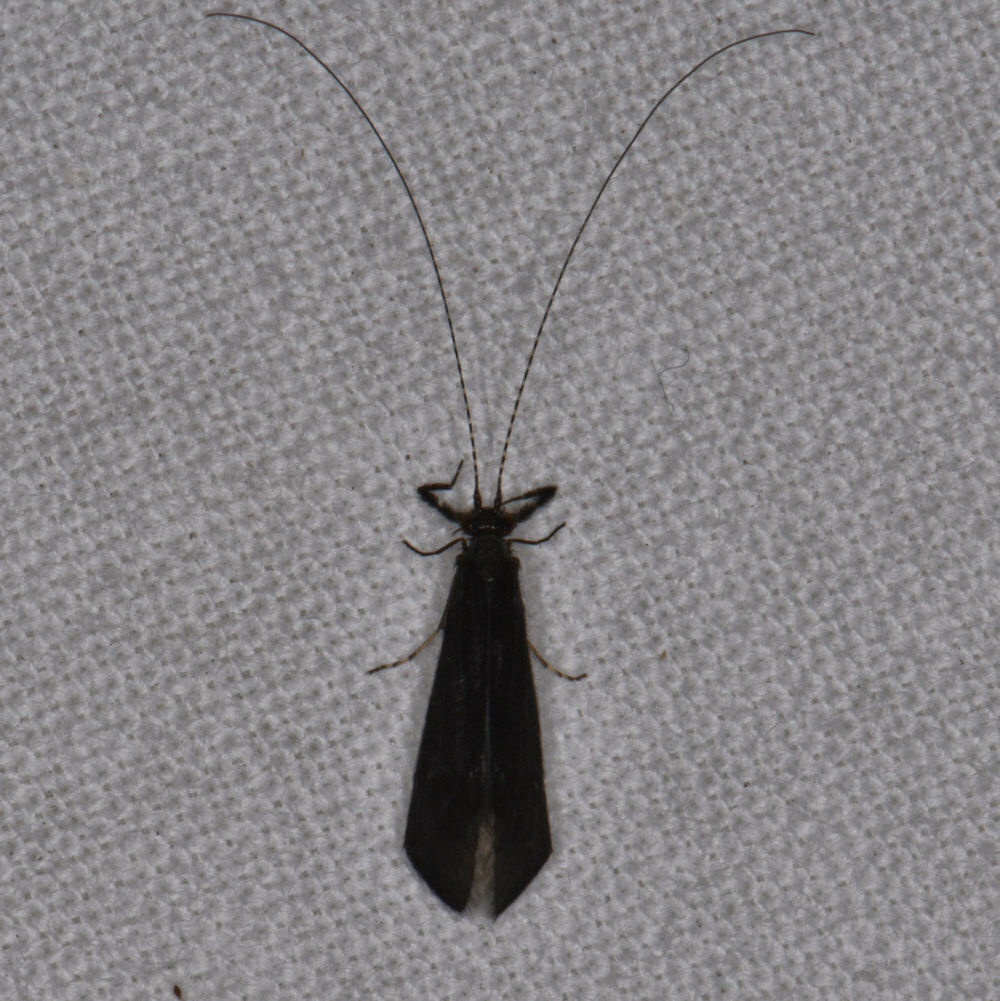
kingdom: Animalia
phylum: Arthropoda
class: Insecta
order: Trichoptera
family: Leptoceridae
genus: Mystacides
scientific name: Mystacides sepulchralis
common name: Black dancer caddisfly
